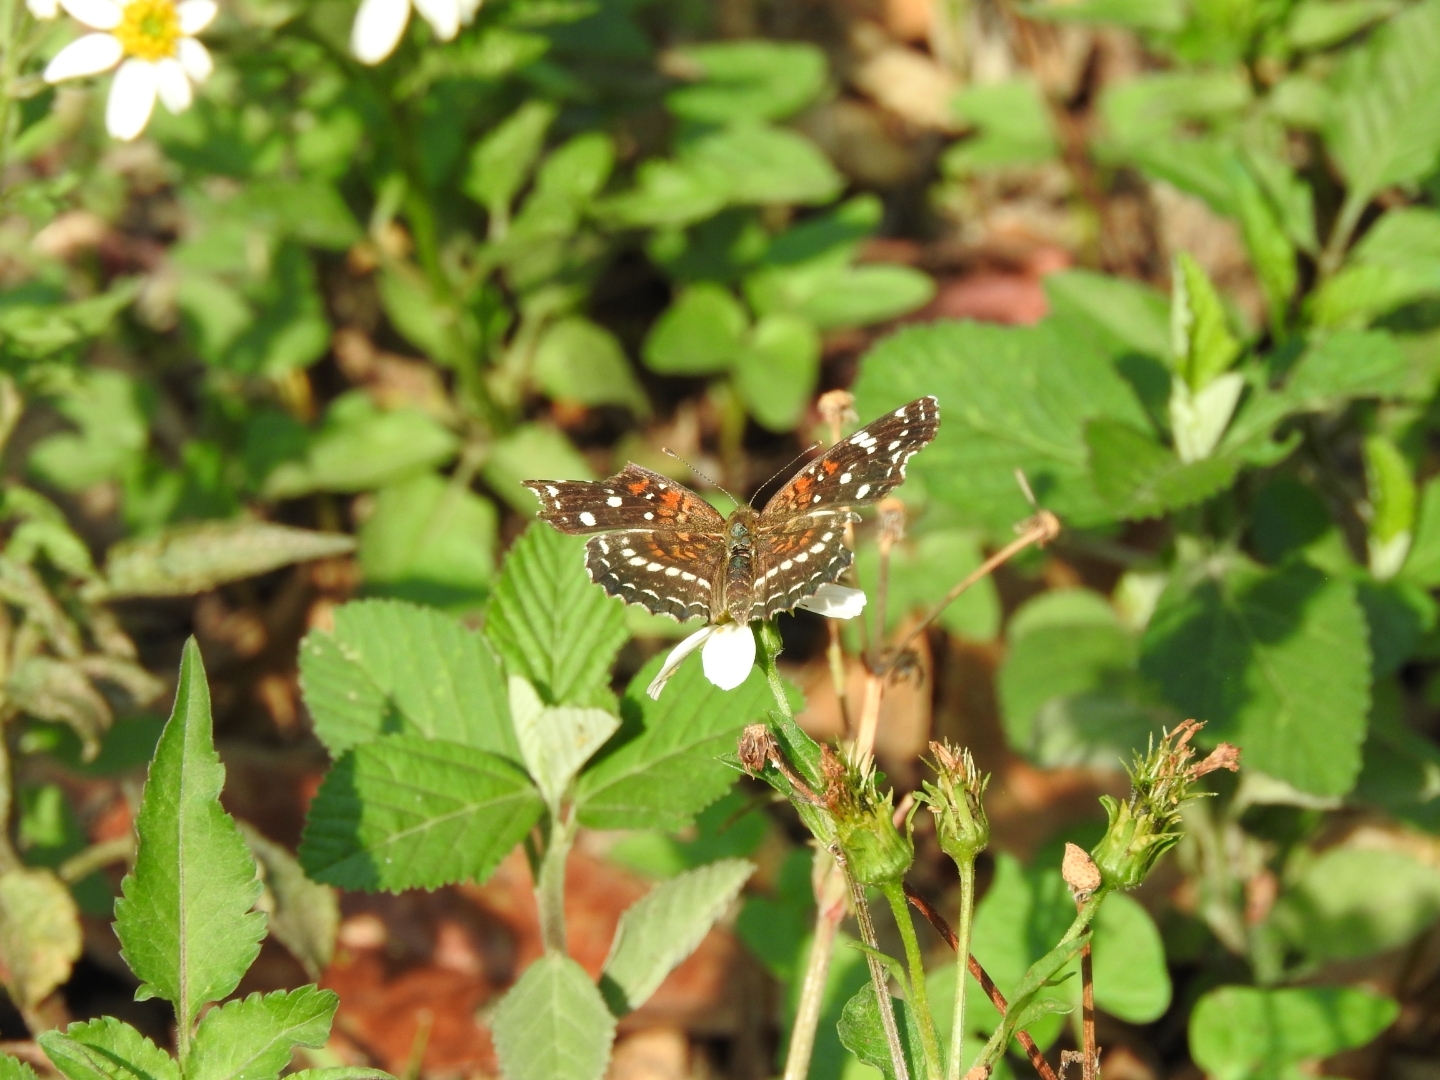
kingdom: Animalia
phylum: Arthropoda
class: Insecta
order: Lepidoptera
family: Nymphalidae
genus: Anthanassa
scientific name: Anthanassa texana
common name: Texan crescent
